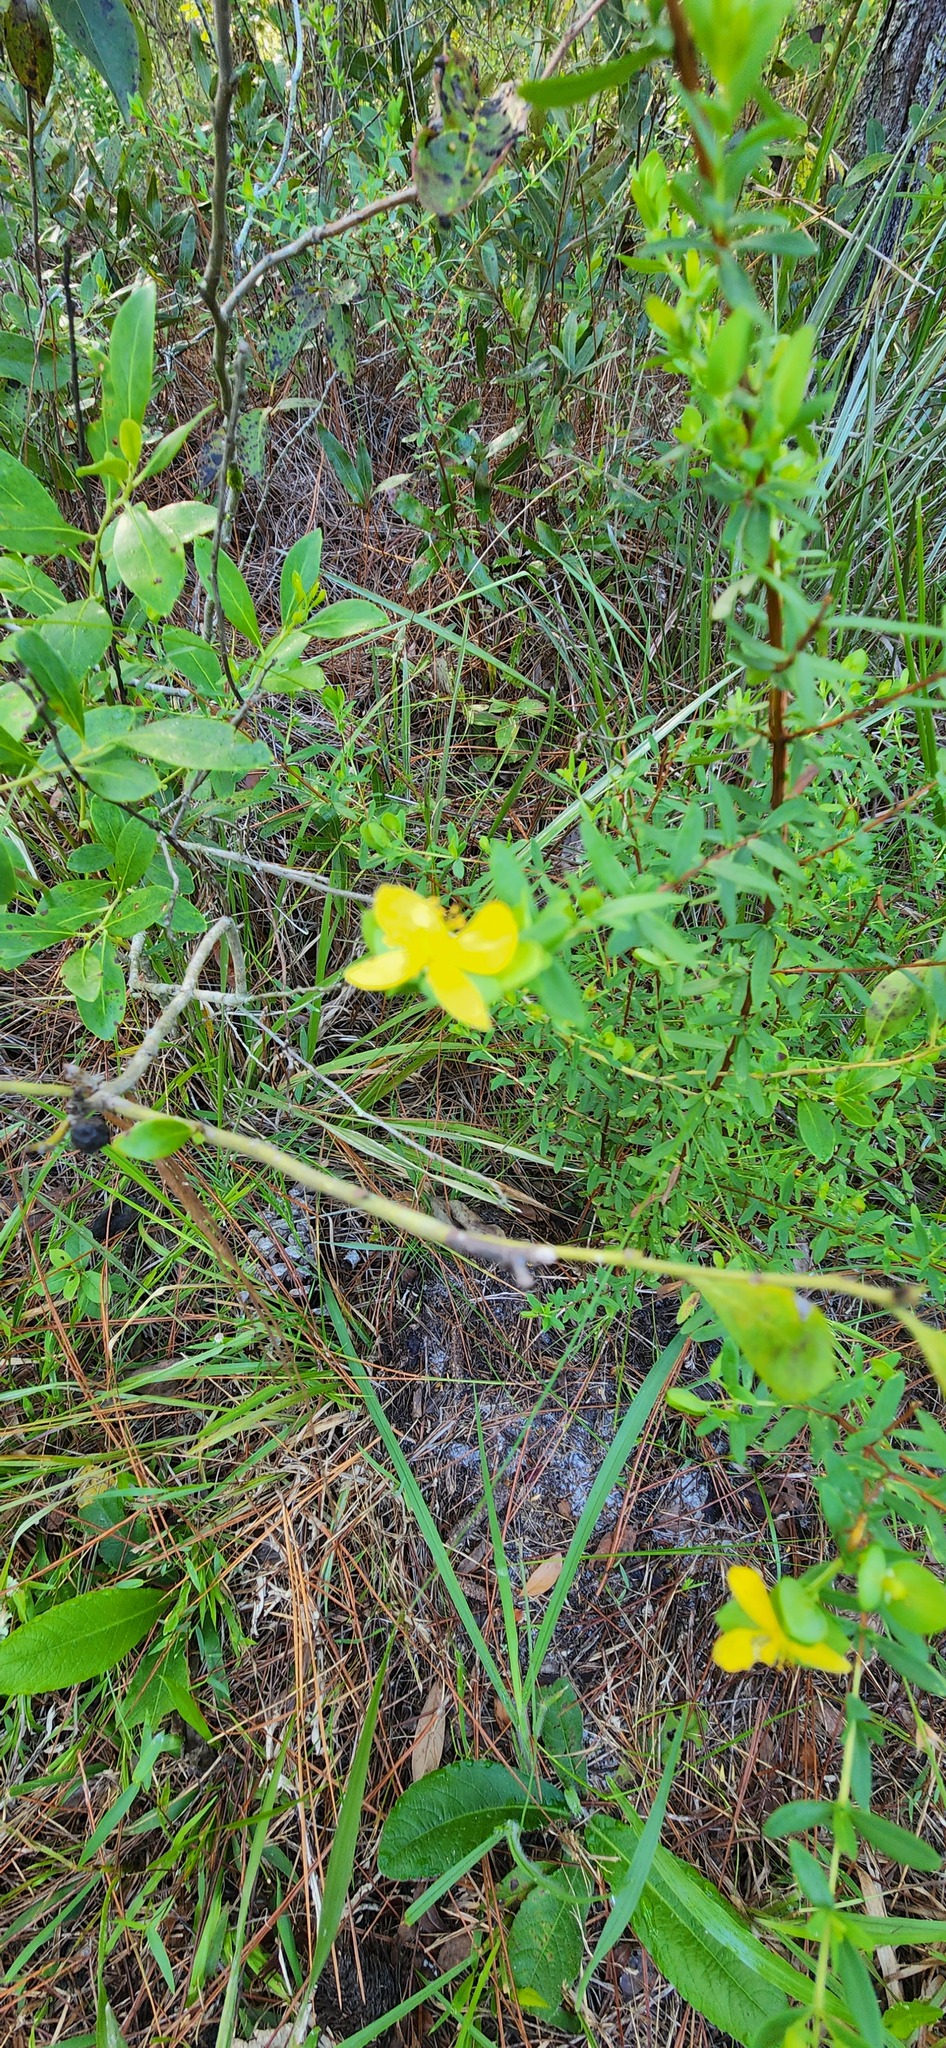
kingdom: Plantae
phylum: Tracheophyta
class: Magnoliopsida
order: Malpighiales
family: Hypericaceae
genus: Hypericum
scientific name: Hypericum hypericoides
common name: St. andrew's cross
